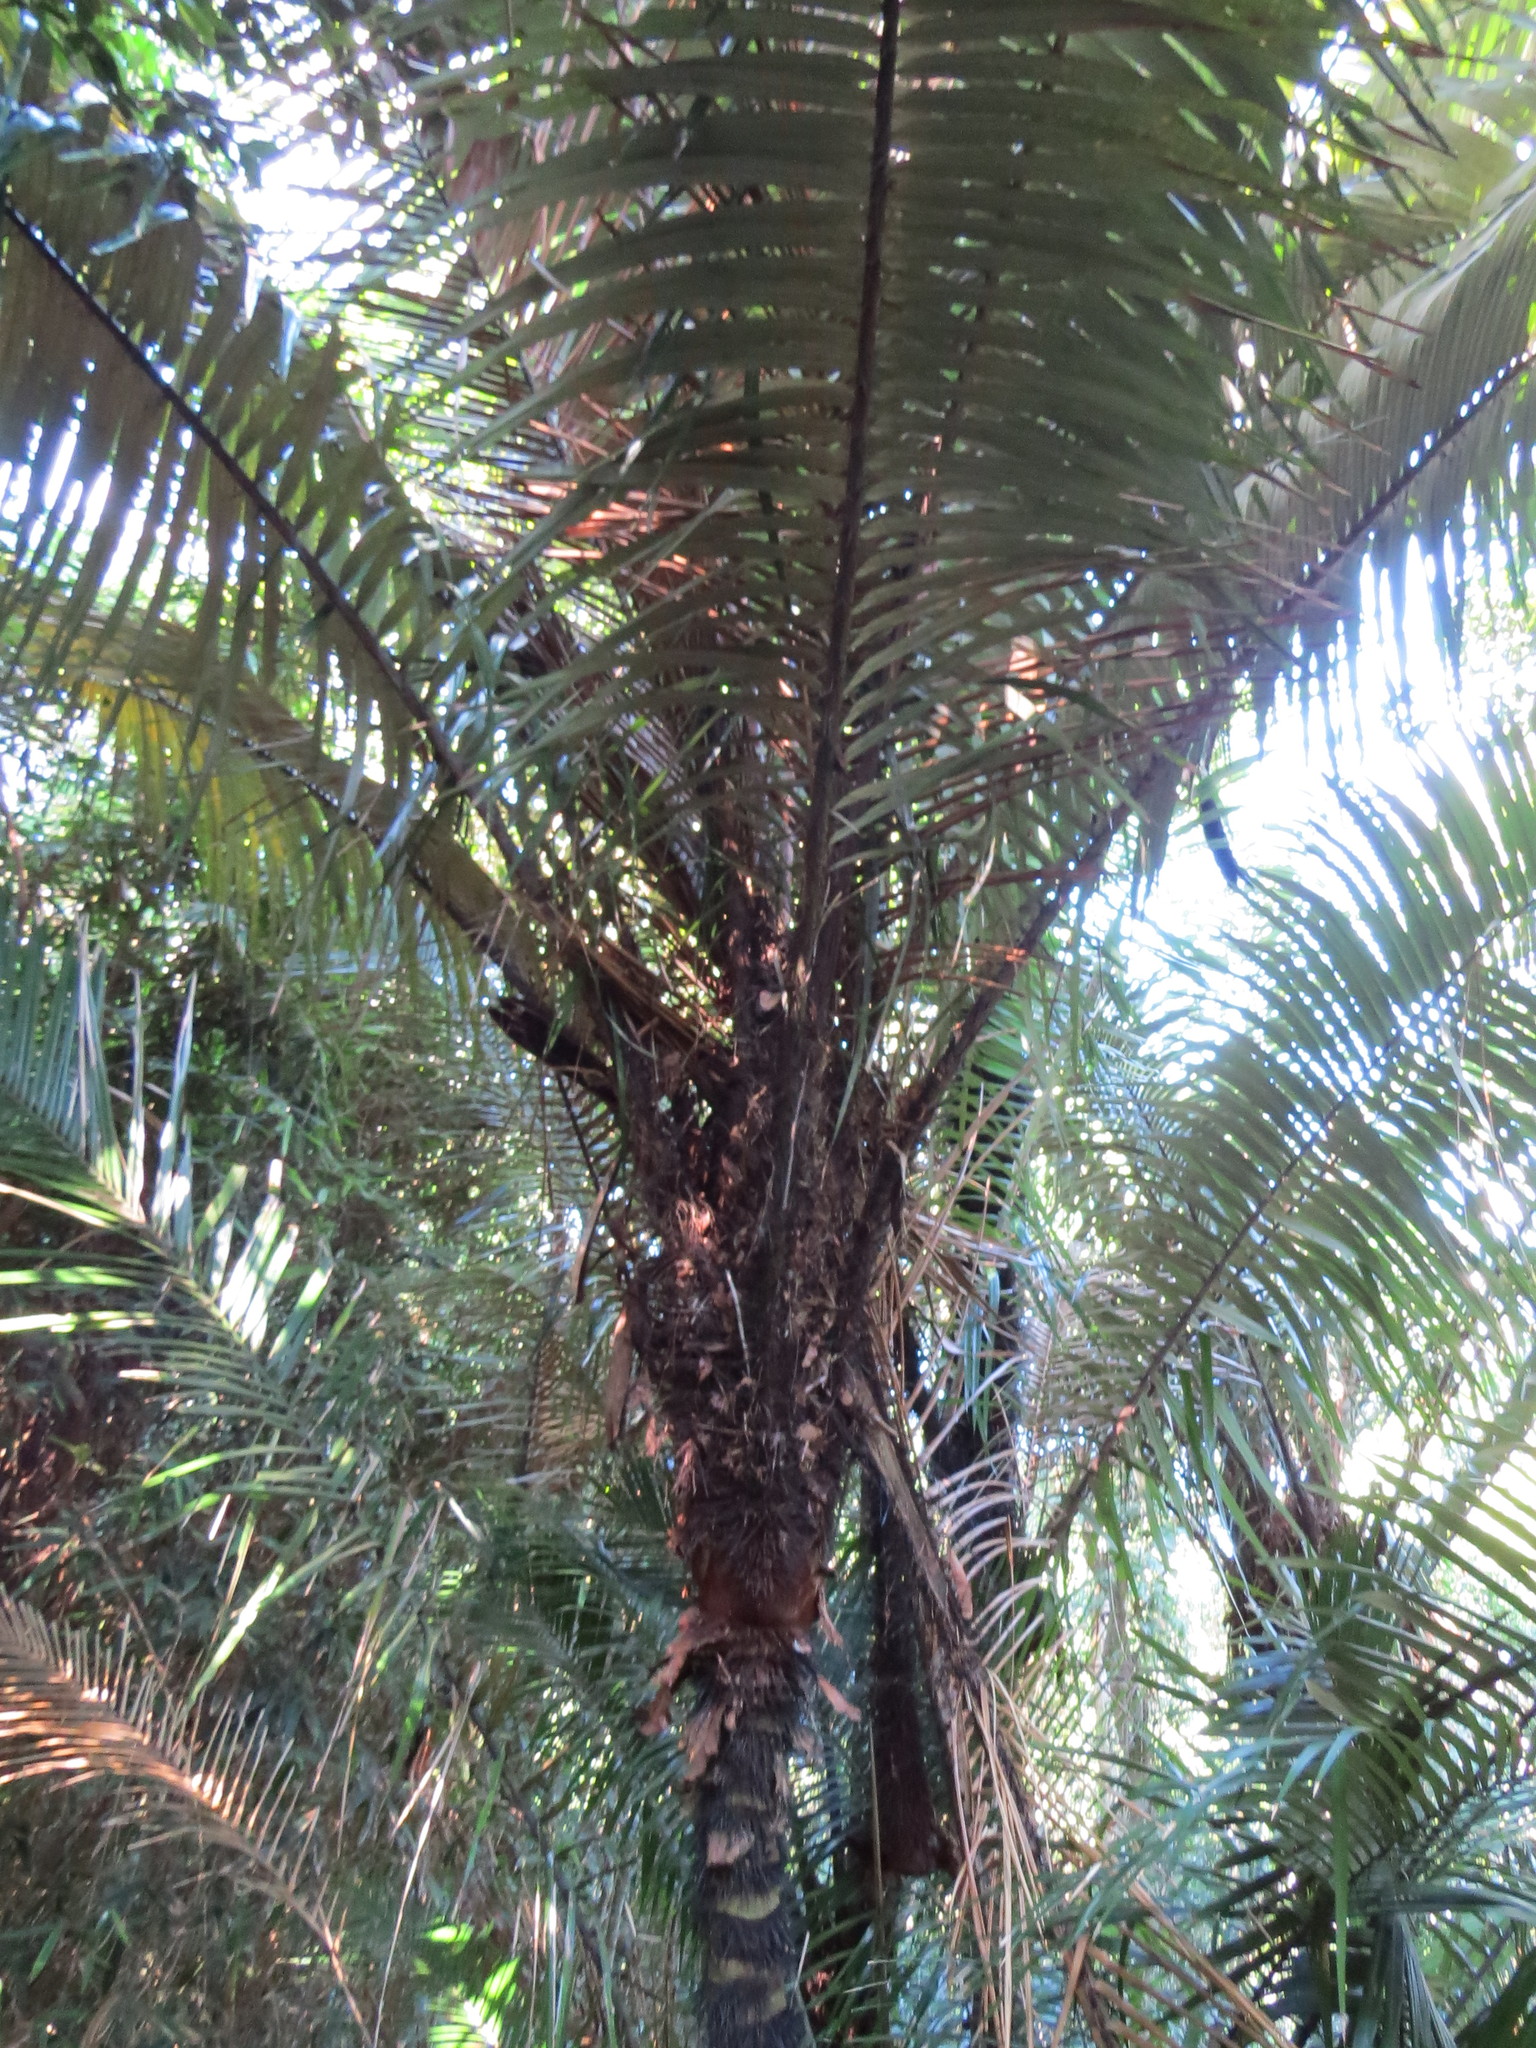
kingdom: Plantae
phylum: Tracheophyta
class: Liliopsida
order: Arecales
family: Arecaceae
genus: Astrocaryum
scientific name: Astrocaryum aculeatissimum
